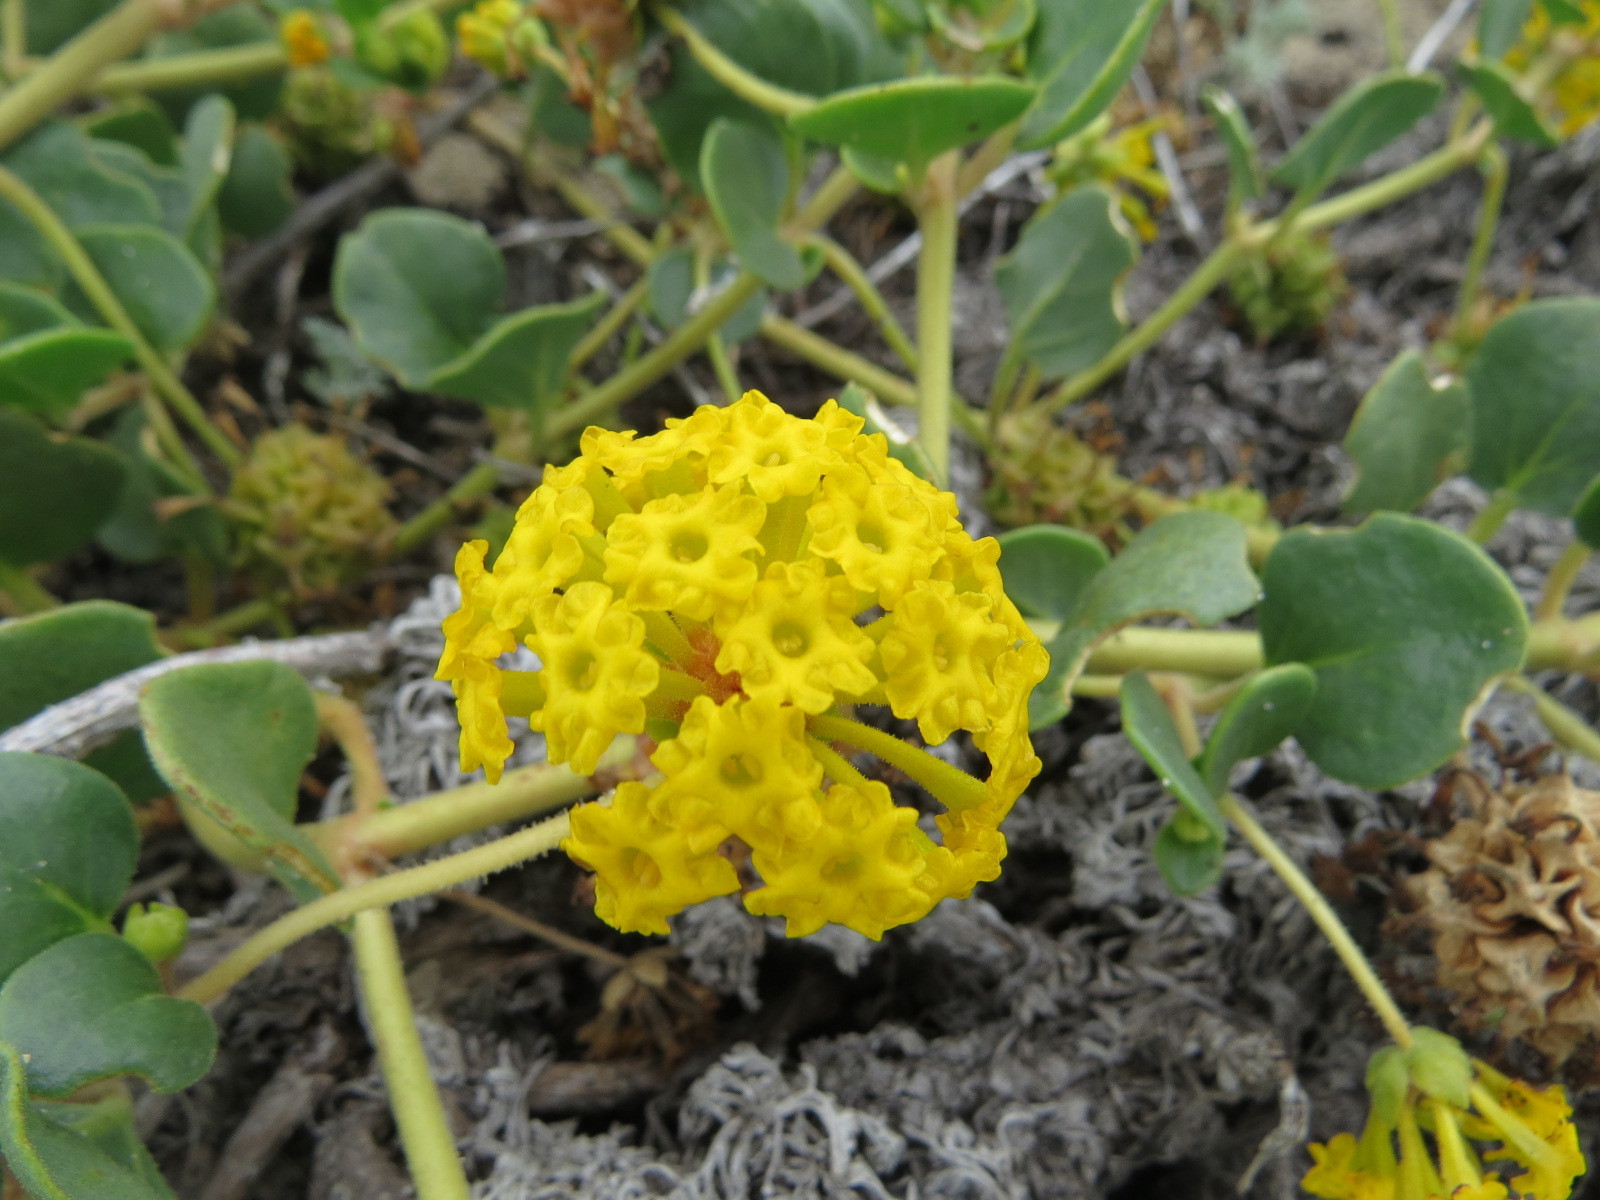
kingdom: Plantae
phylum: Tracheophyta
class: Magnoliopsida
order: Caryophyllales
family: Nyctaginaceae
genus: Abronia
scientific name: Abronia latifolia
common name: Yellow sand-verbena
